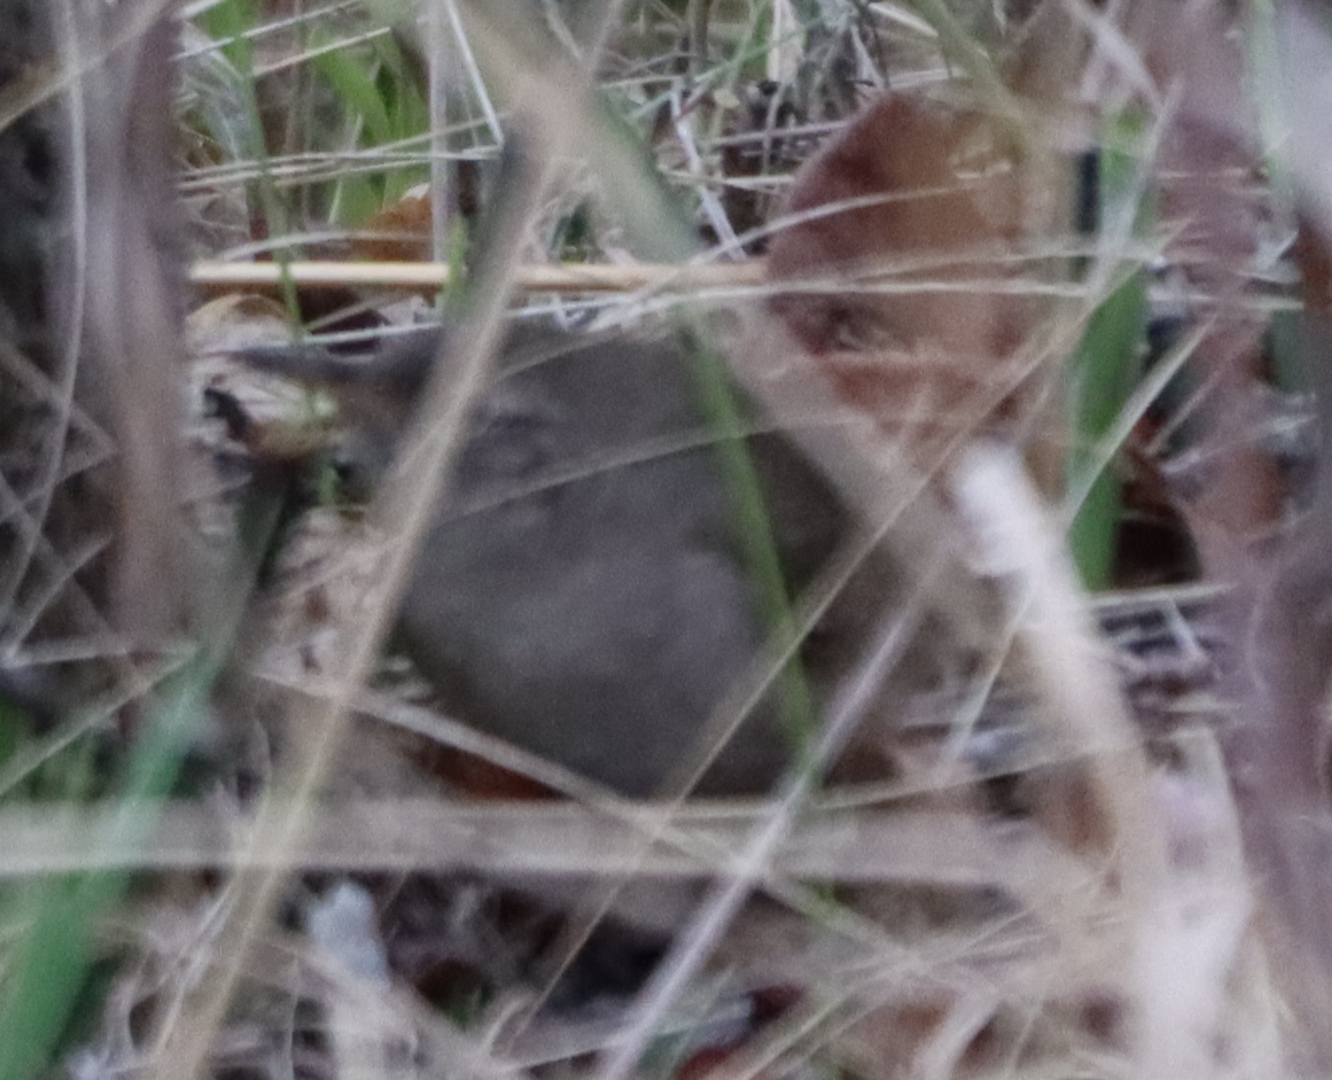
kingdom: Animalia
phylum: Chordata
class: Aves
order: Passeriformes
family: Troglodytidae
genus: Troglodytes
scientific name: Troglodytes aedon
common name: House wren
